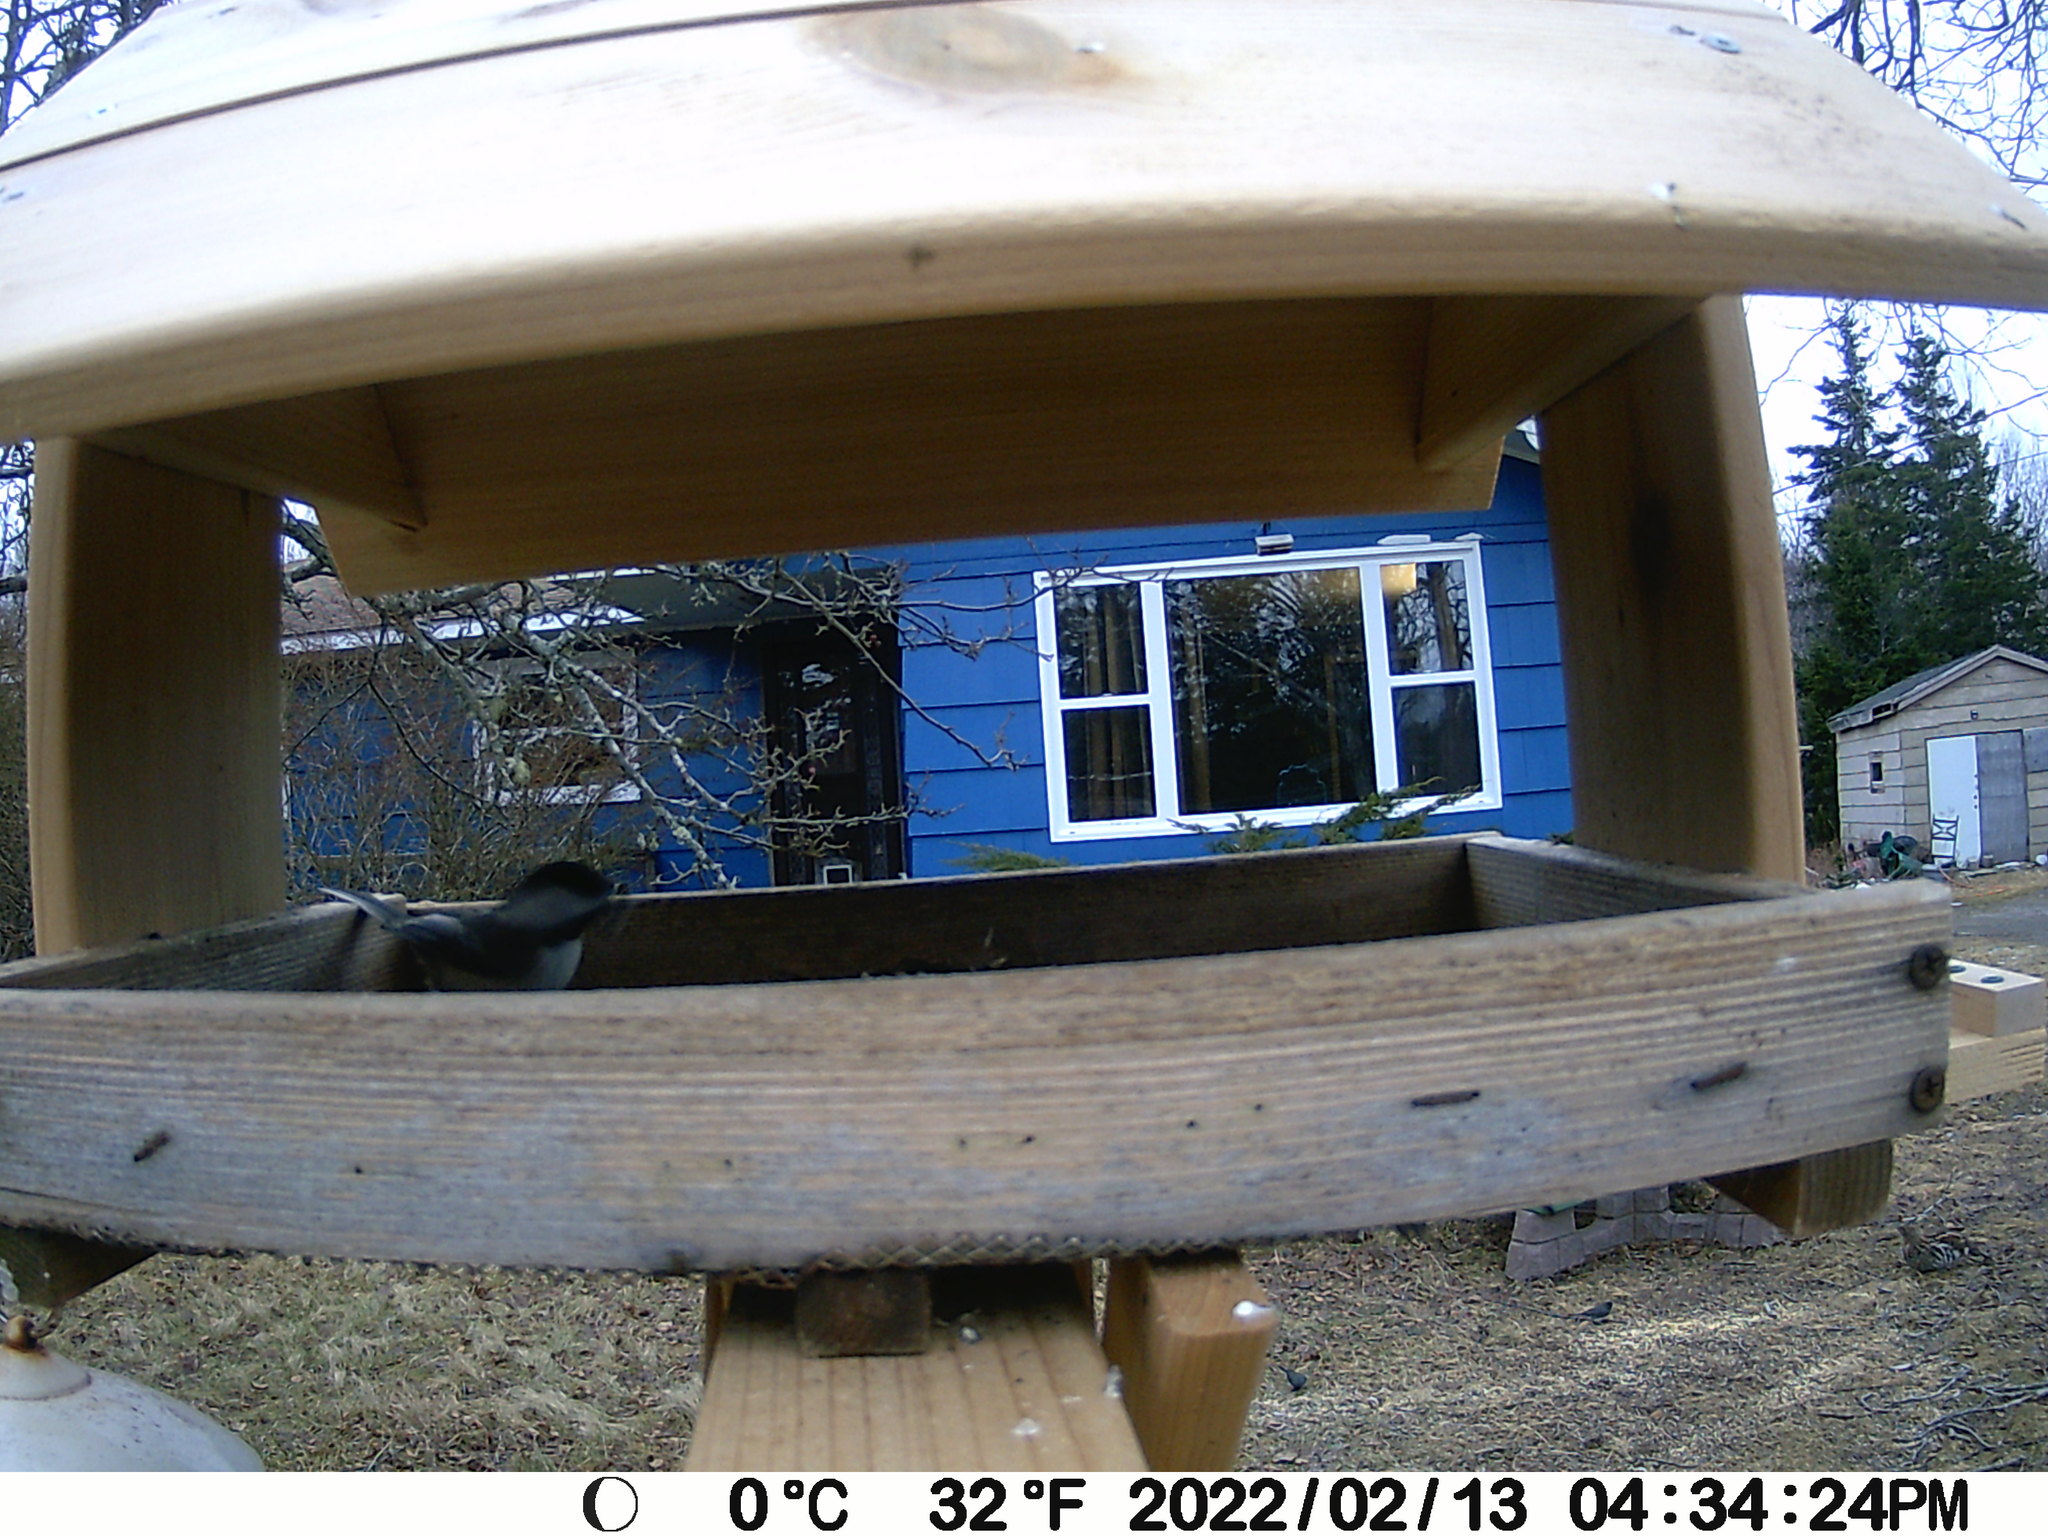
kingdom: Animalia
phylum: Chordata
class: Aves
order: Galliformes
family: Phasianidae
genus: Bonasa
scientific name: Bonasa umbellus
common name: Ruffed grouse
